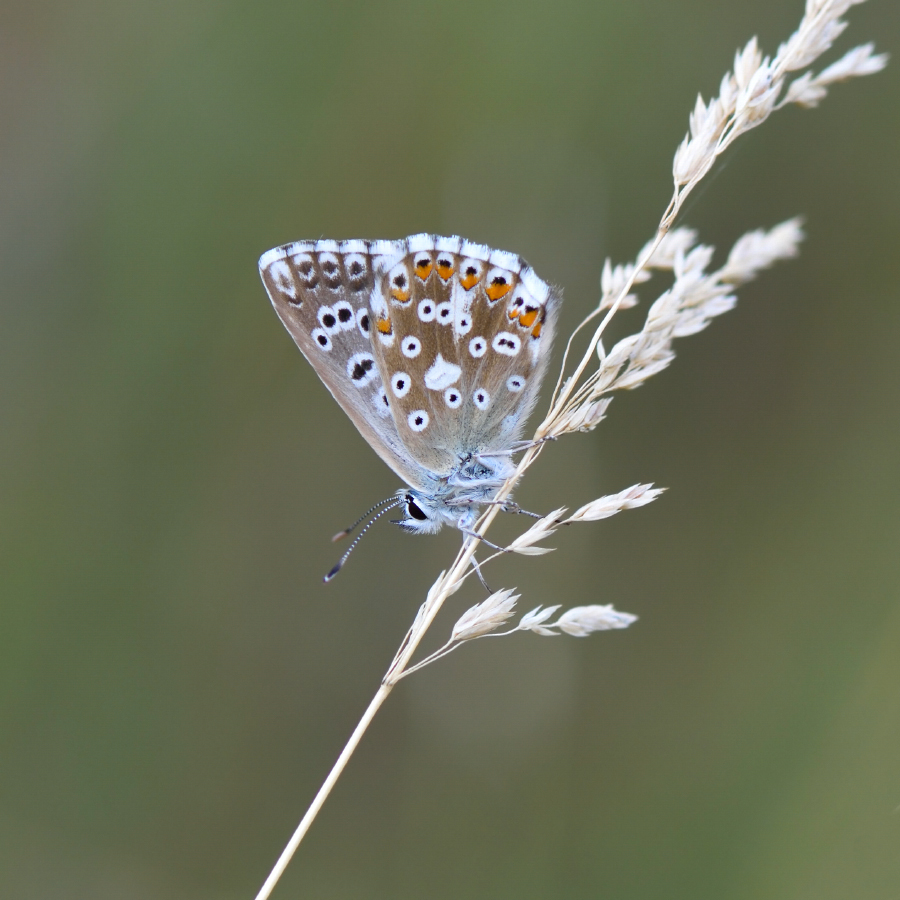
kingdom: Animalia
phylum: Arthropoda
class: Insecta
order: Lepidoptera
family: Lycaenidae
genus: Lysandra
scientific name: Lysandra coridon
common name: Chalkhill blue
